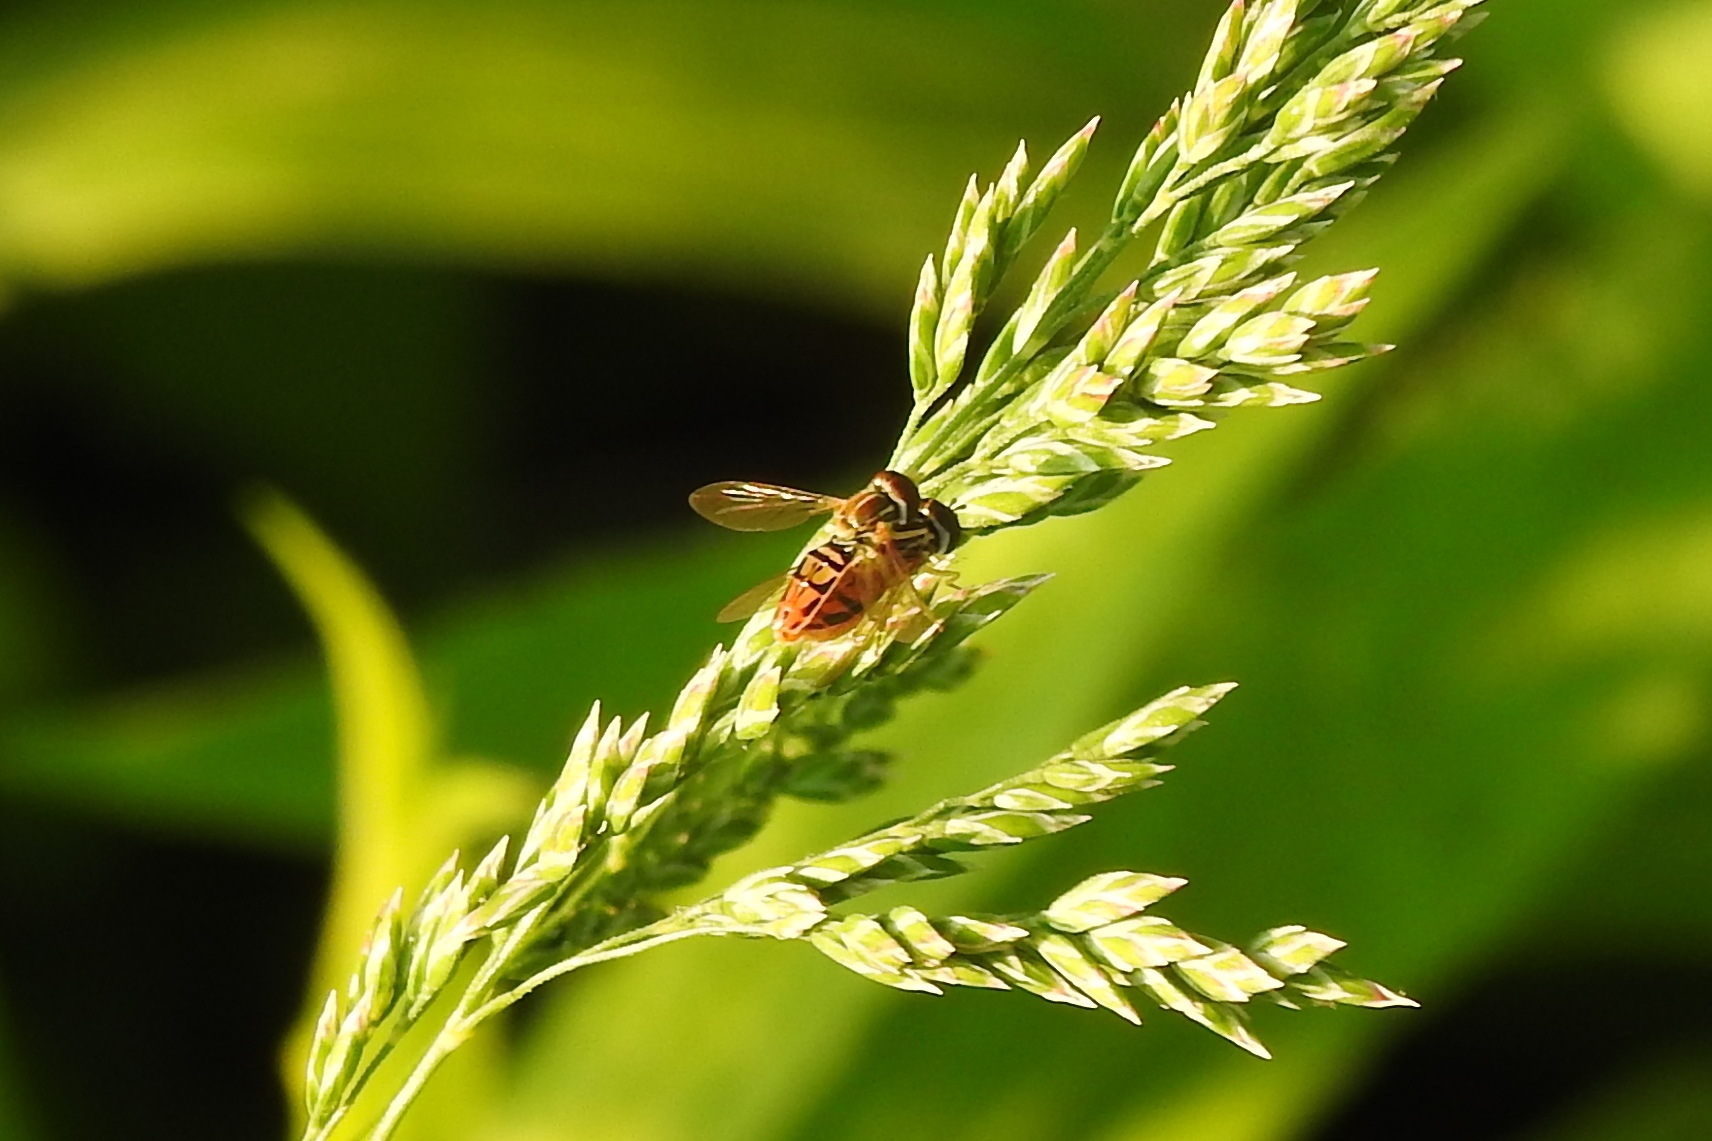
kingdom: Animalia
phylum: Arthropoda
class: Insecta
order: Diptera
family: Syrphidae
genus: Toxomerus
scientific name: Toxomerus marginatus
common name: Syrphid fly
